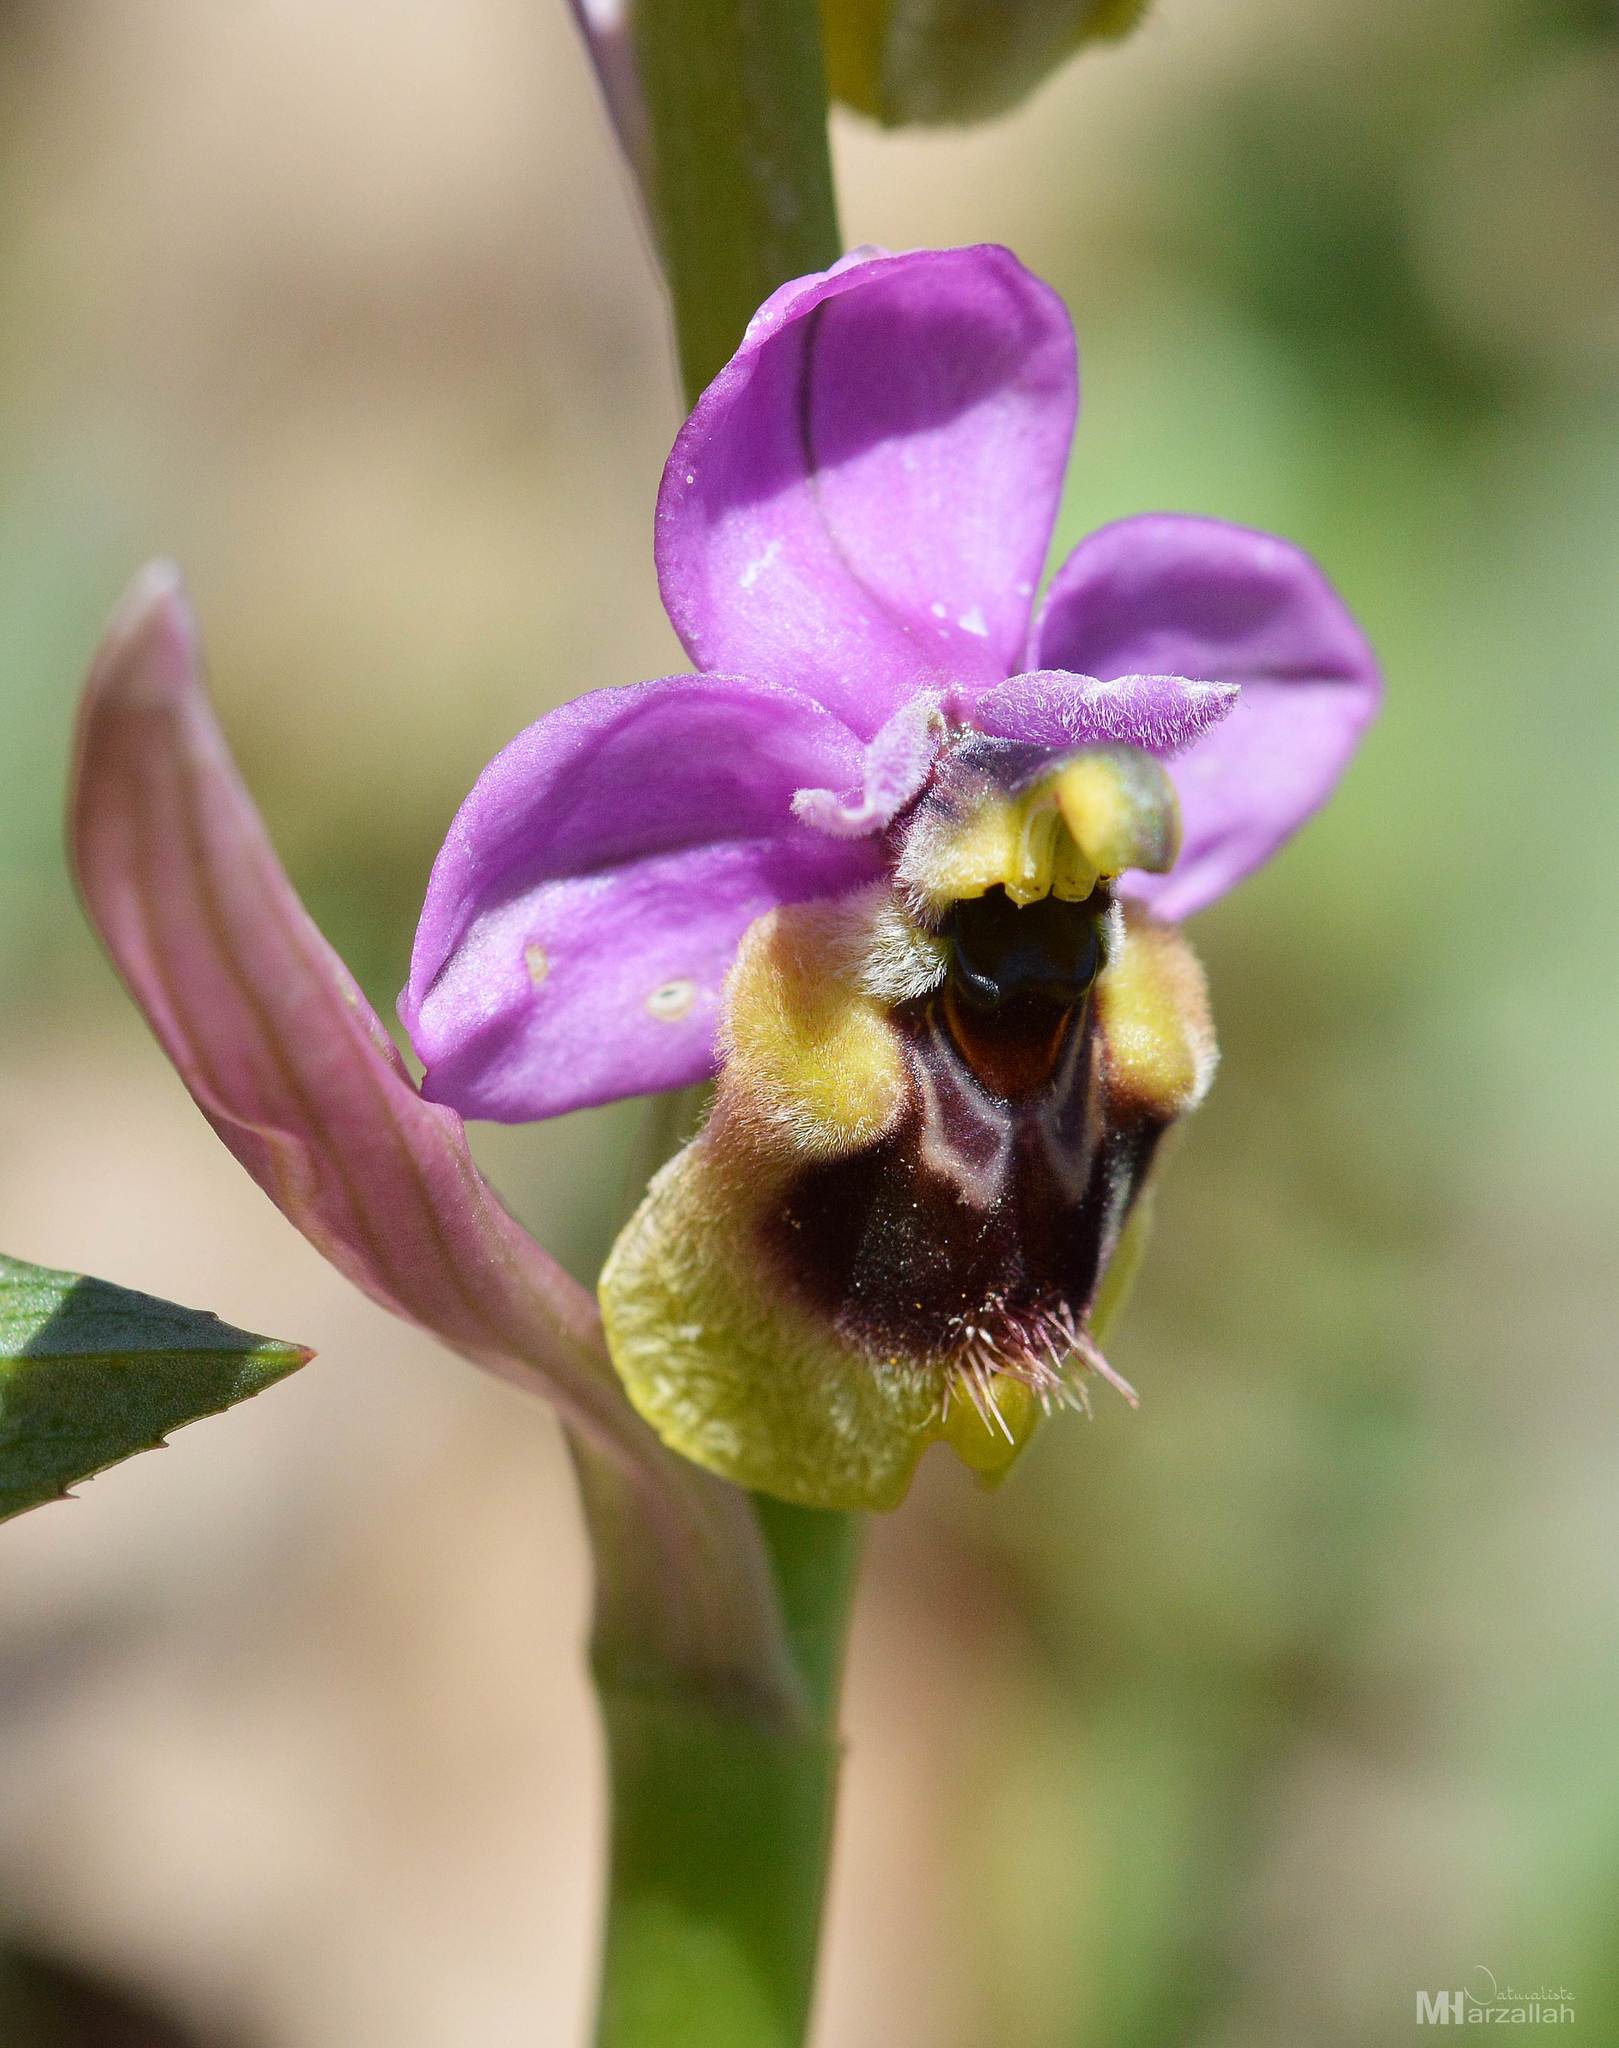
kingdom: Plantae
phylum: Tracheophyta
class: Liliopsida
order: Asparagales
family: Orchidaceae
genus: Ophrys
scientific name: Ophrys tenthredinifera
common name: Sawfly orchid
